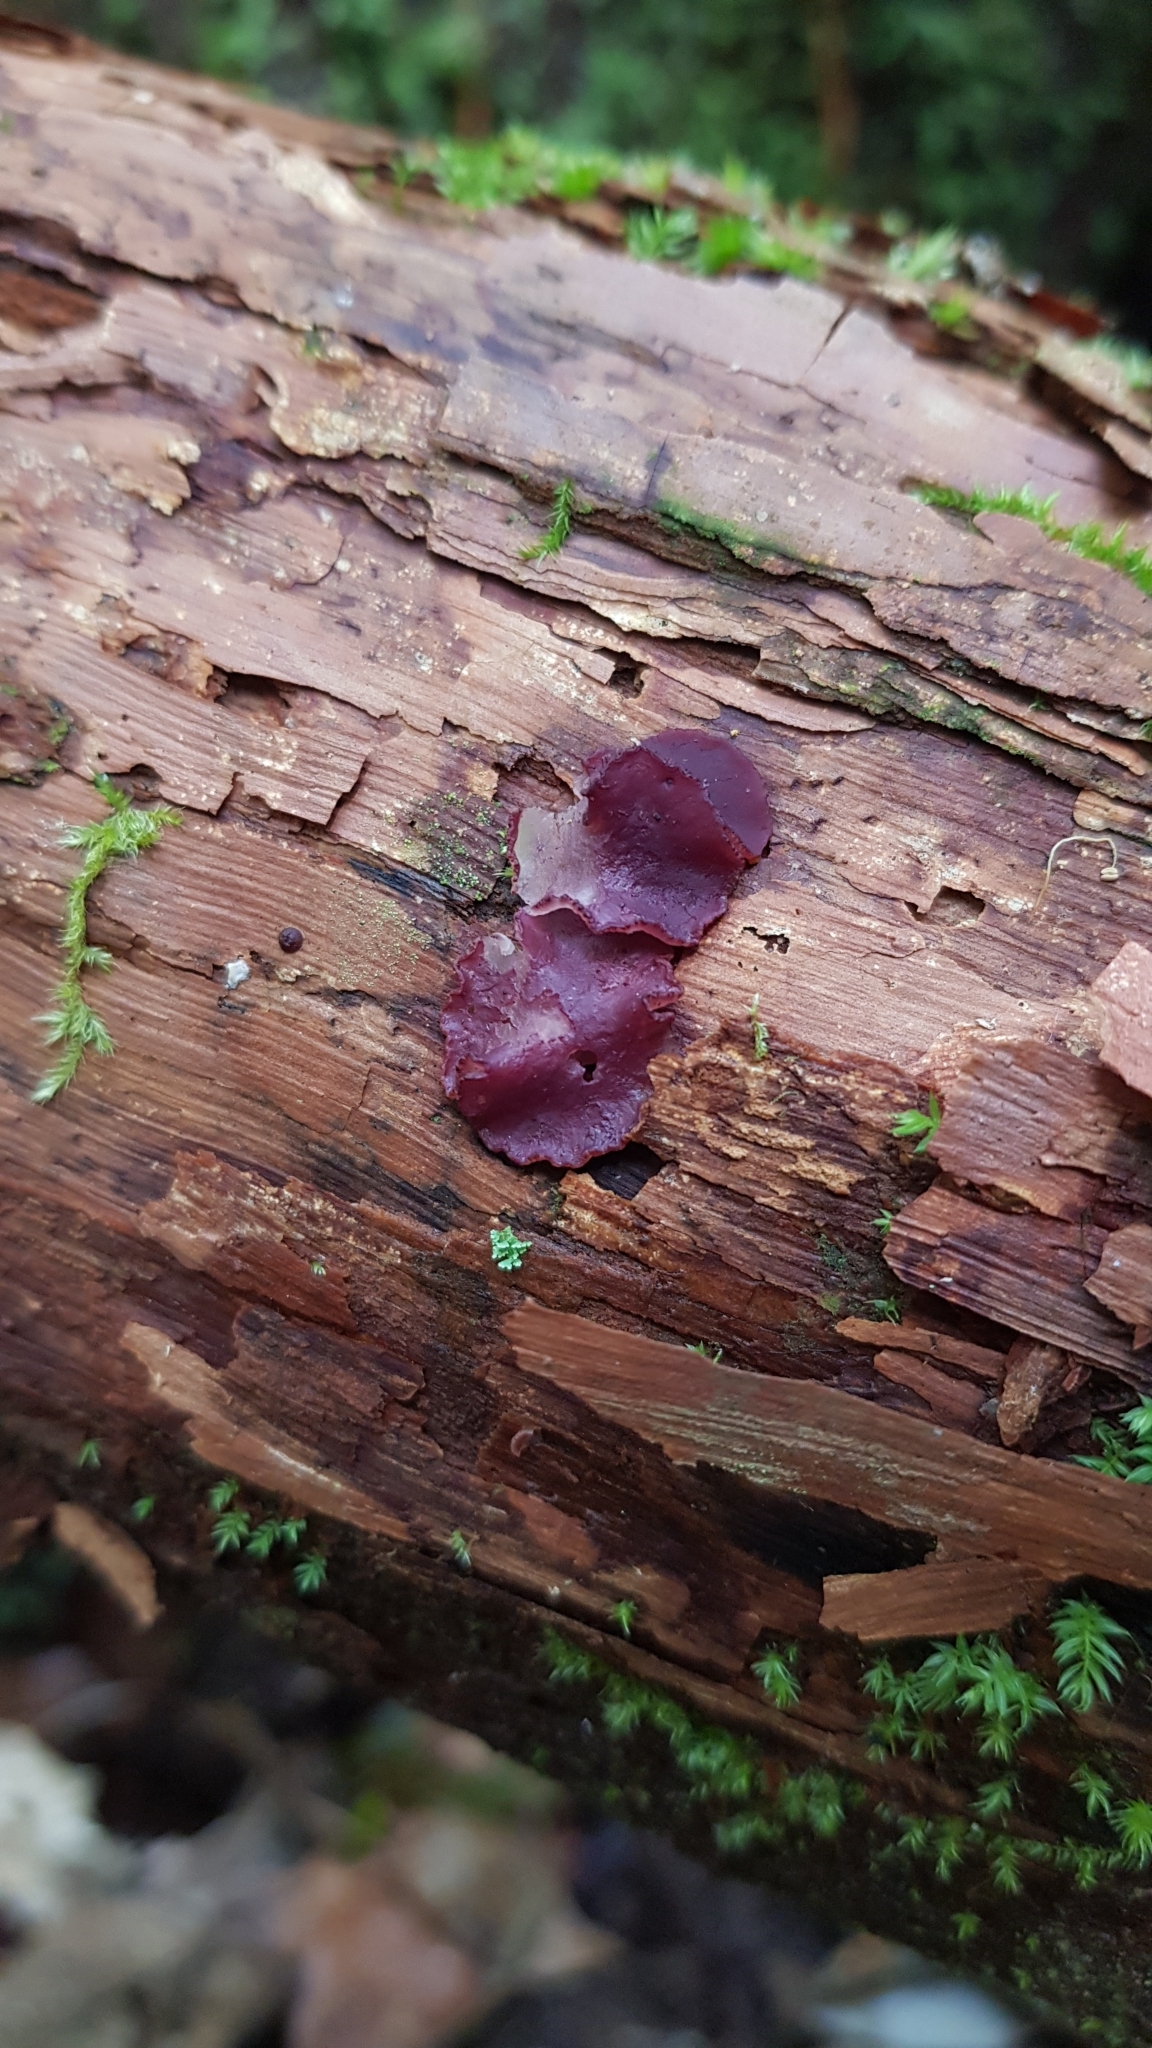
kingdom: Fungi
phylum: Ascomycota
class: Leotiomycetes
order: Helotiales
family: Gelatinodiscaceae
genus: Ascocoryne
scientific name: Ascocoryne sarcoides
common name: Purple jellydisc
